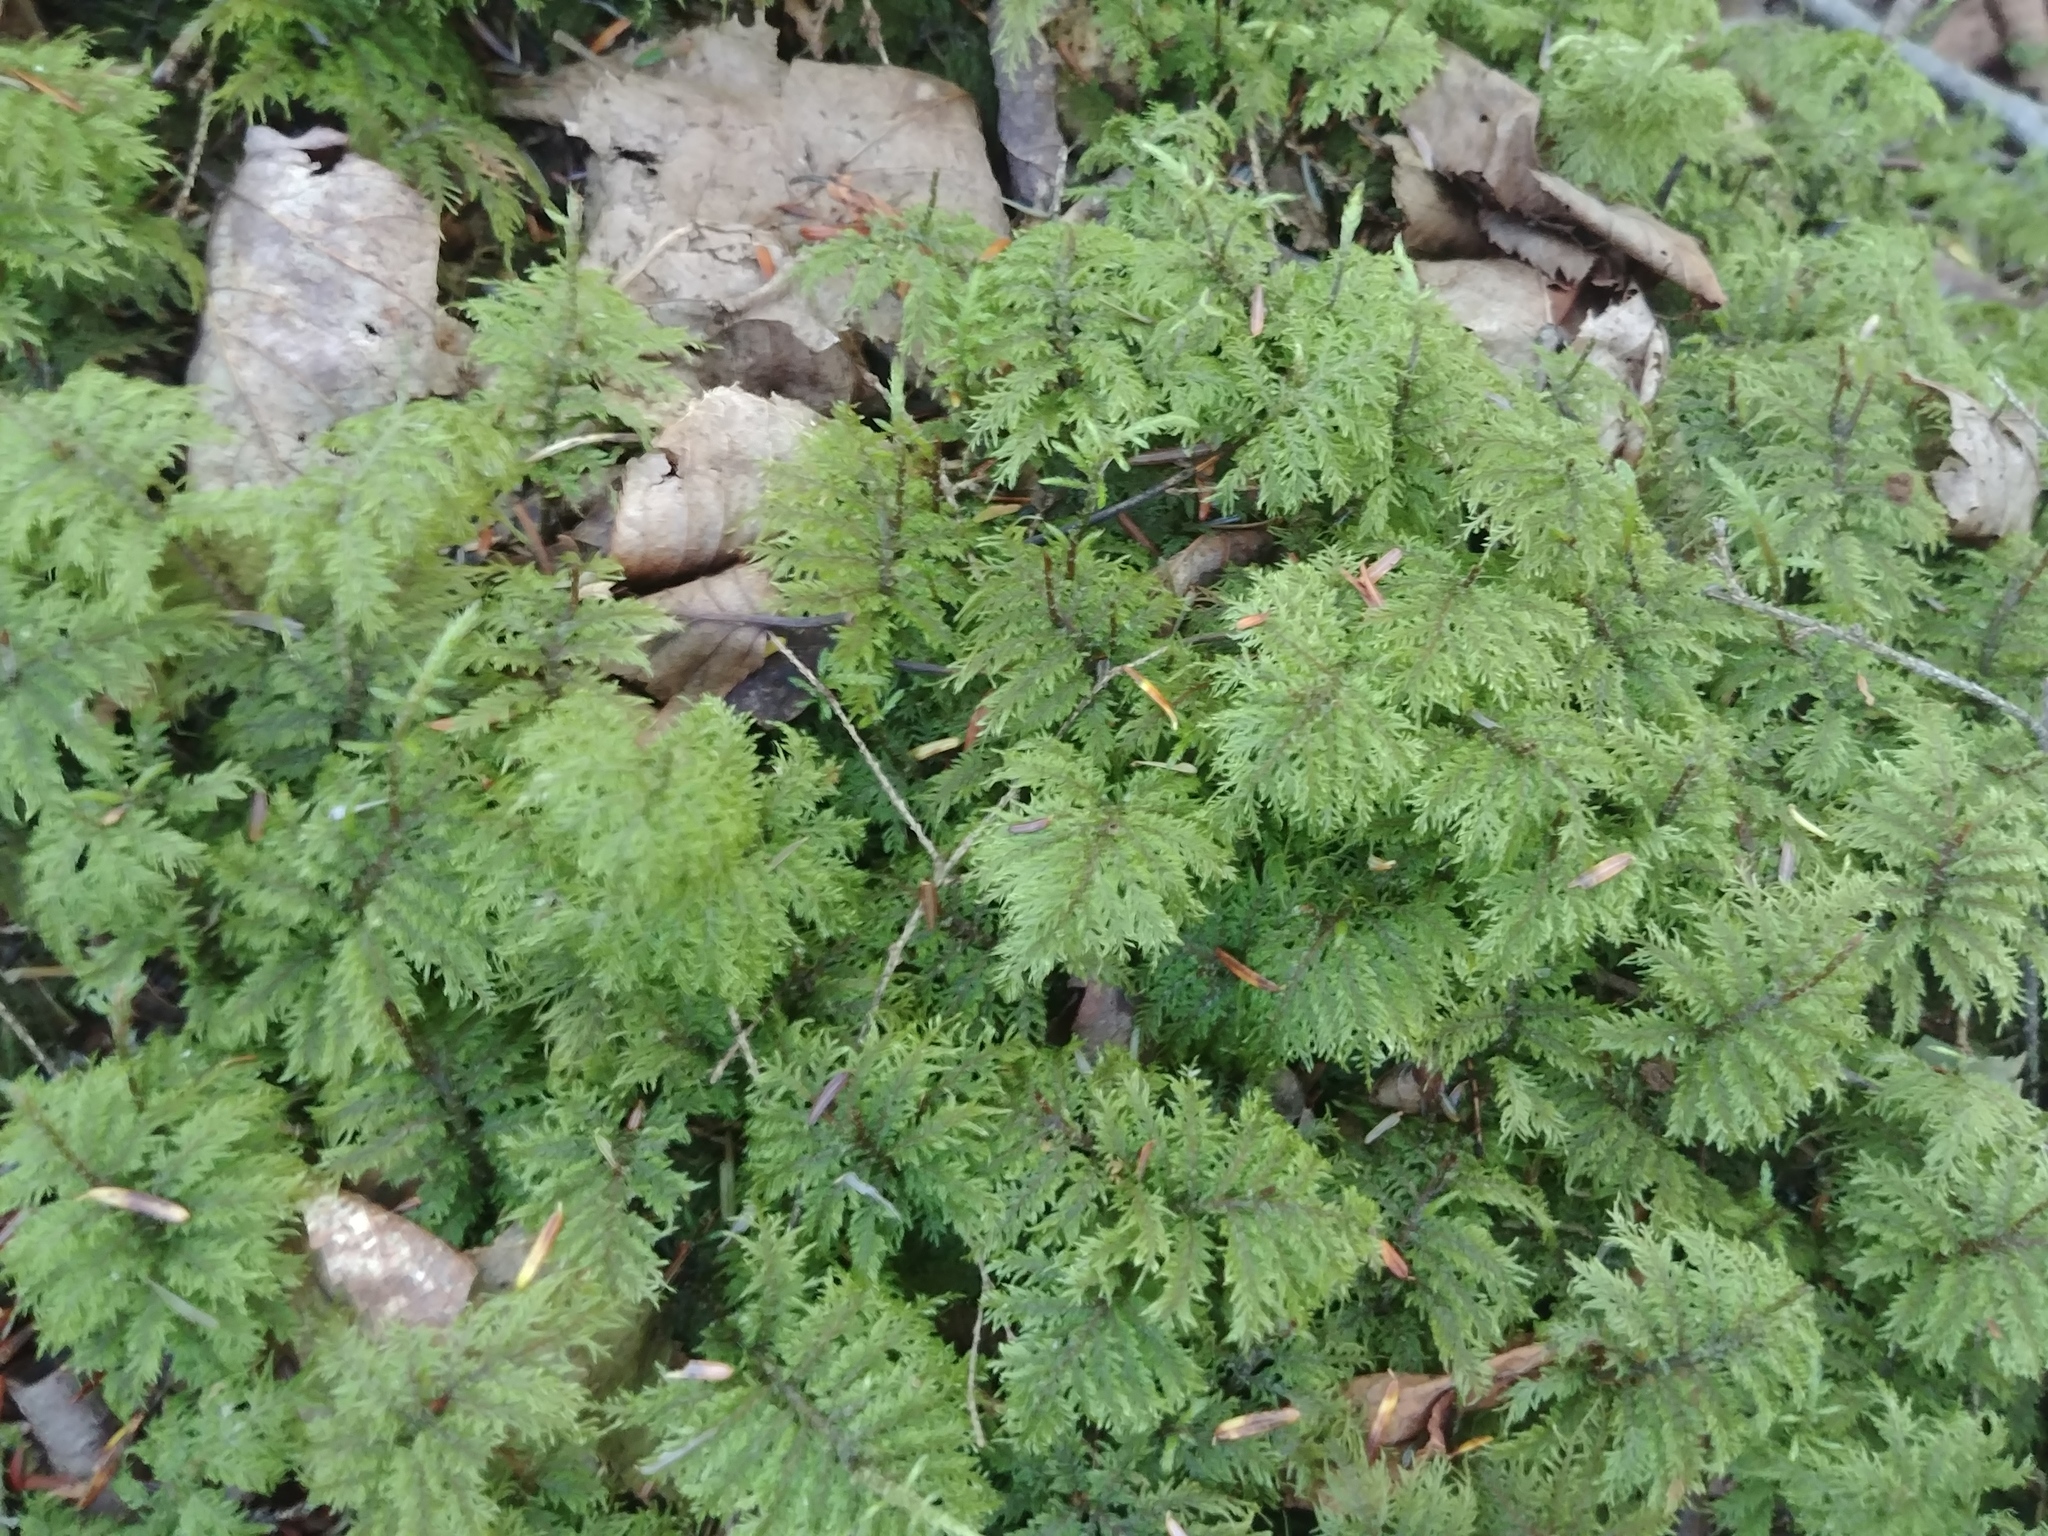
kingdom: Plantae
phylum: Bryophyta
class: Bryopsida
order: Hypnales
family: Hylocomiaceae
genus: Hylocomium
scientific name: Hylocomium splendens
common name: Stairstep moss
